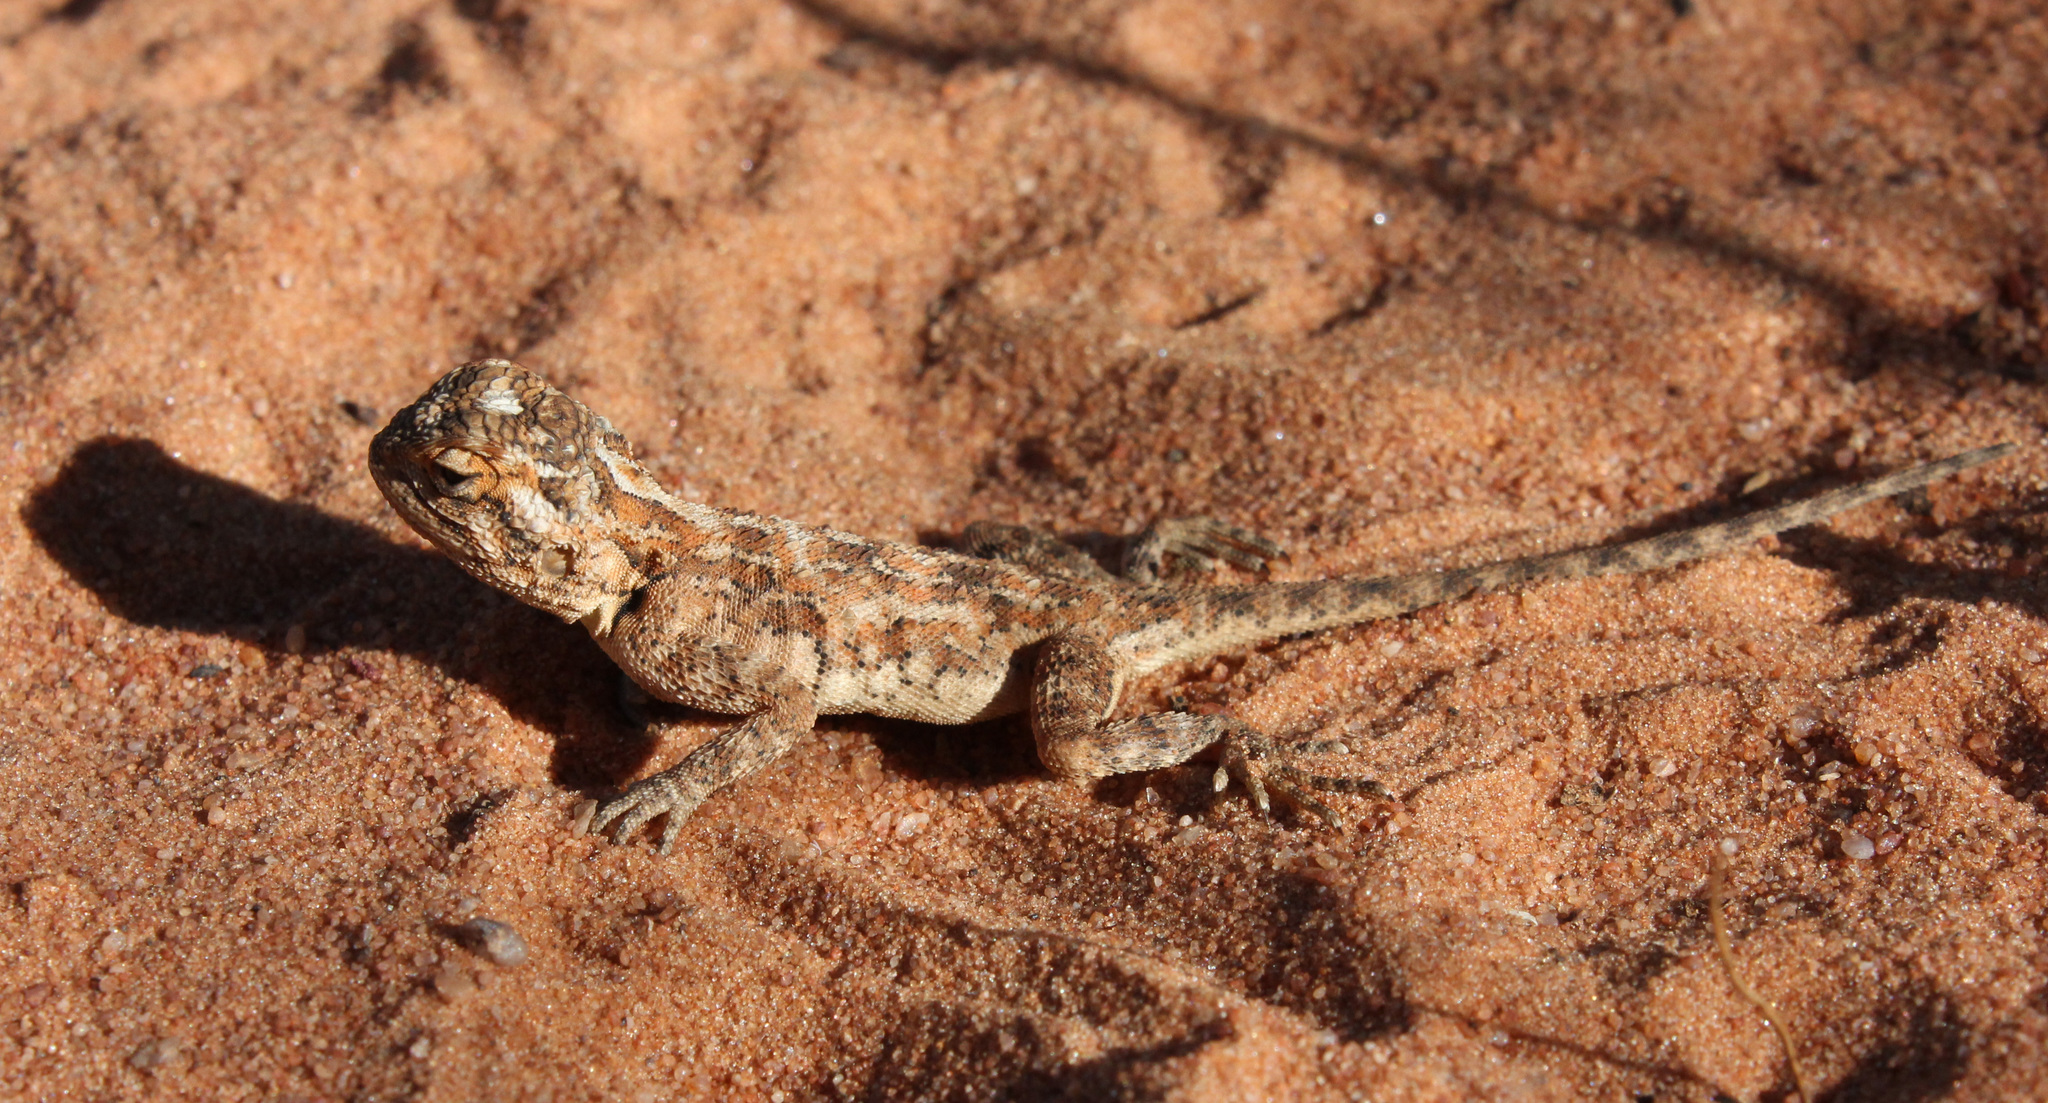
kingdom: Animalia
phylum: Chordata
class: Squamata
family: Agamidae
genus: Agama
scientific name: Agama aculeata
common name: Common ground agama
